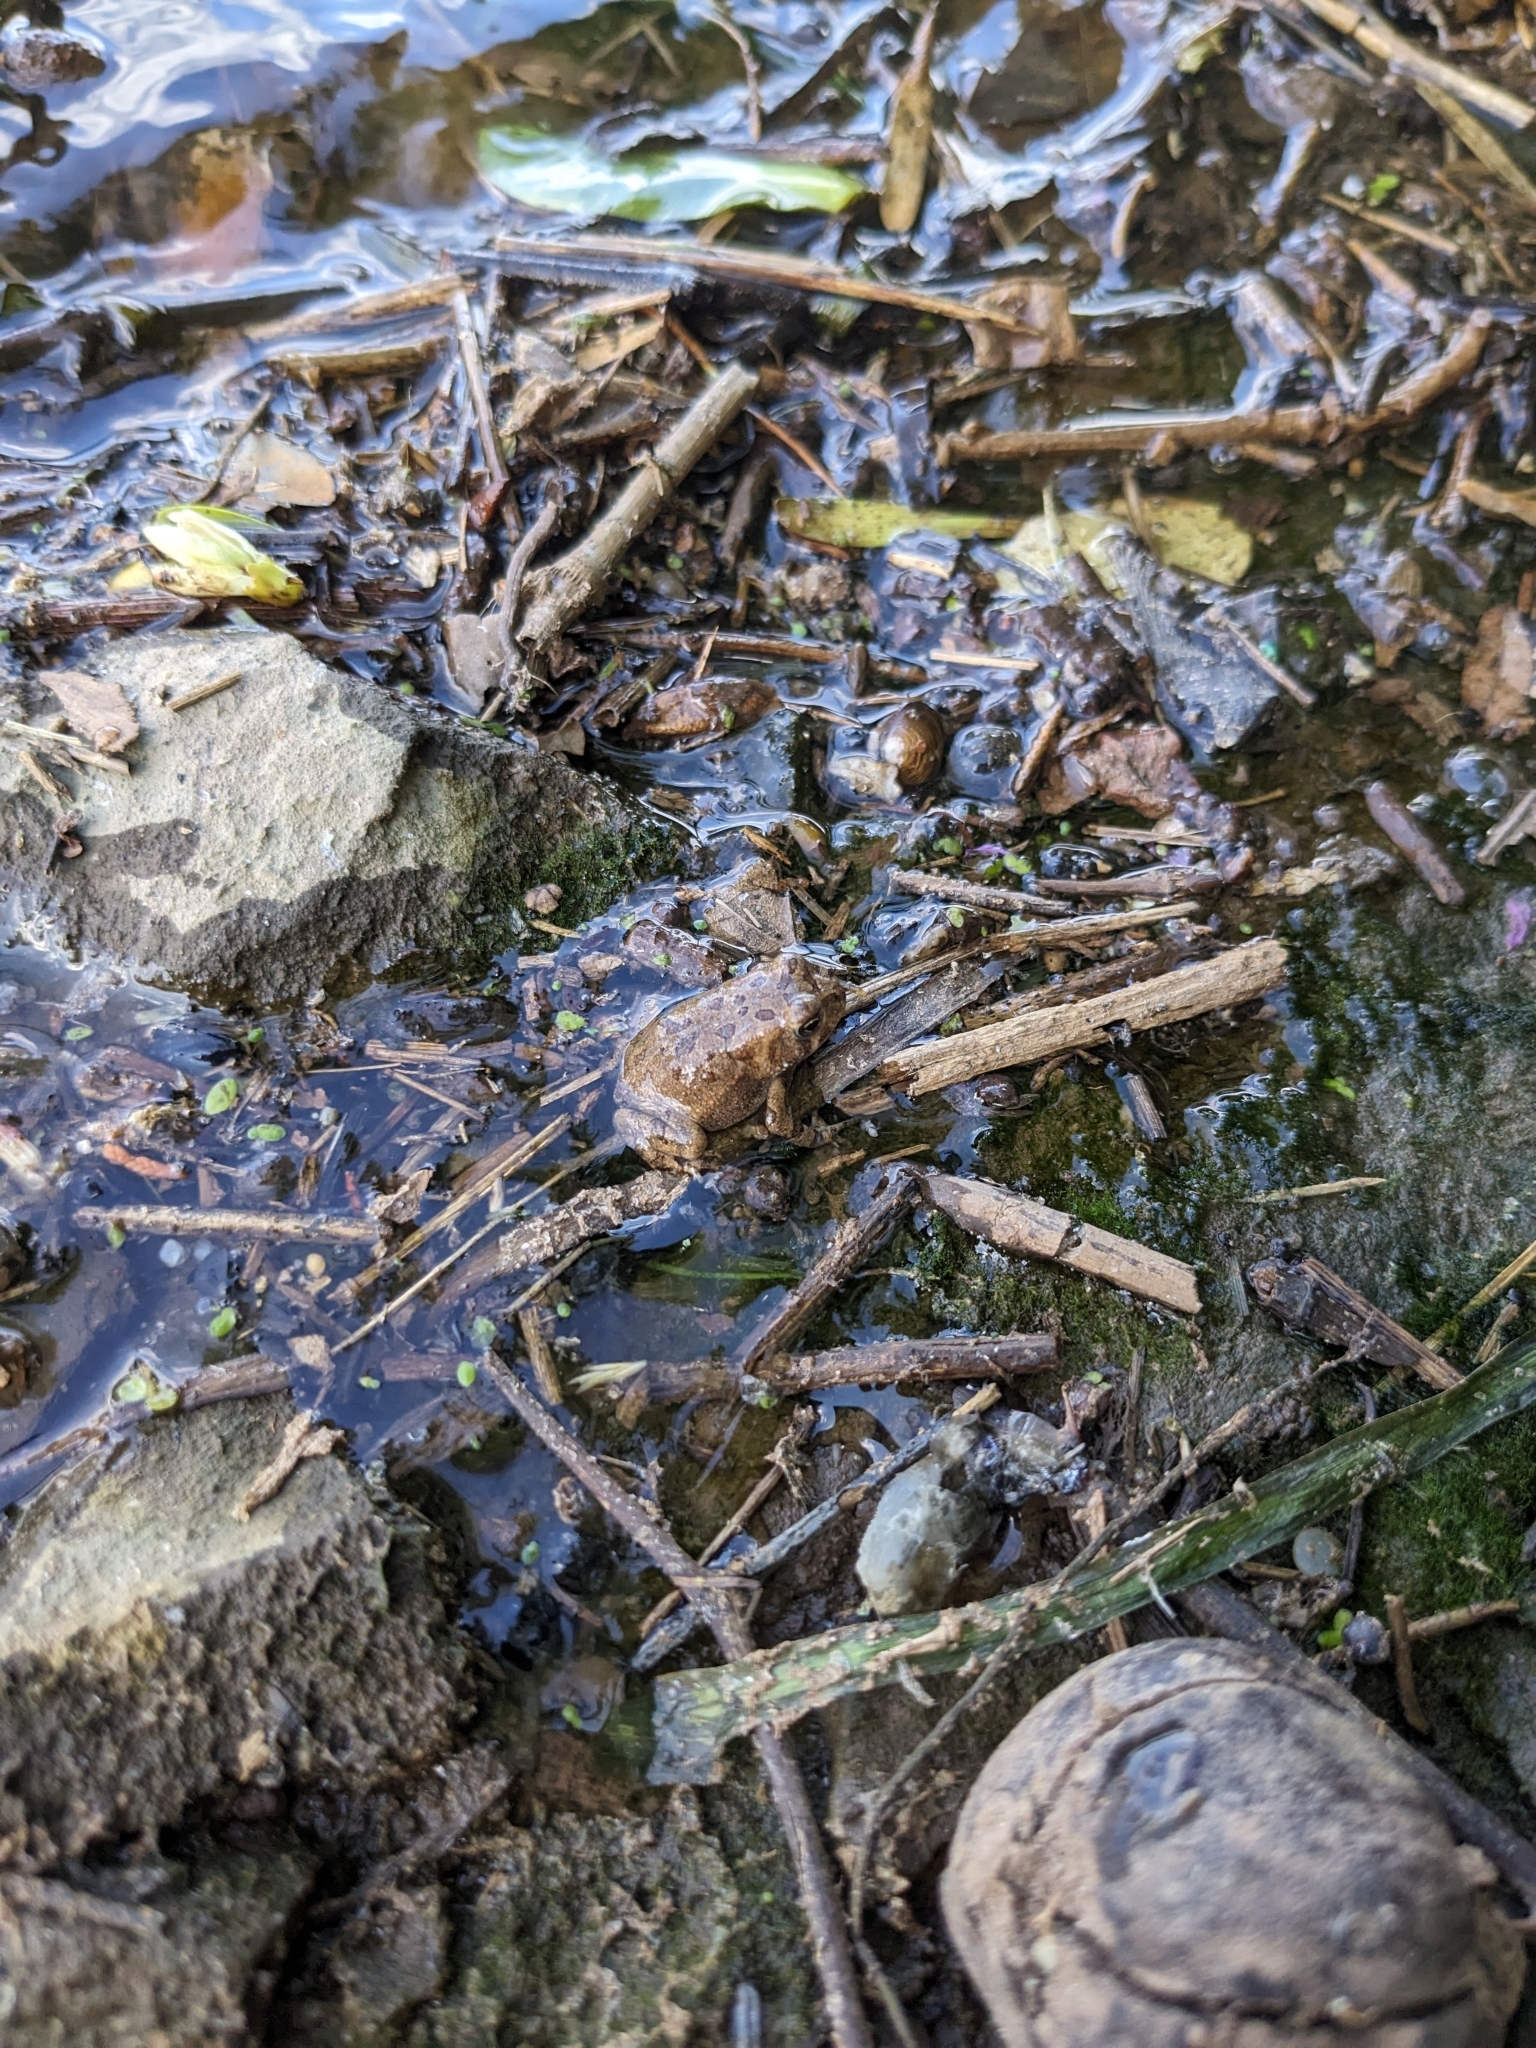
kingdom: Animalia
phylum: Chordata
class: Amphibia
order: Anura
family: Bufonidae
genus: Anaxyrus
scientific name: Anaxyrus fowleri
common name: Fowler's toad
